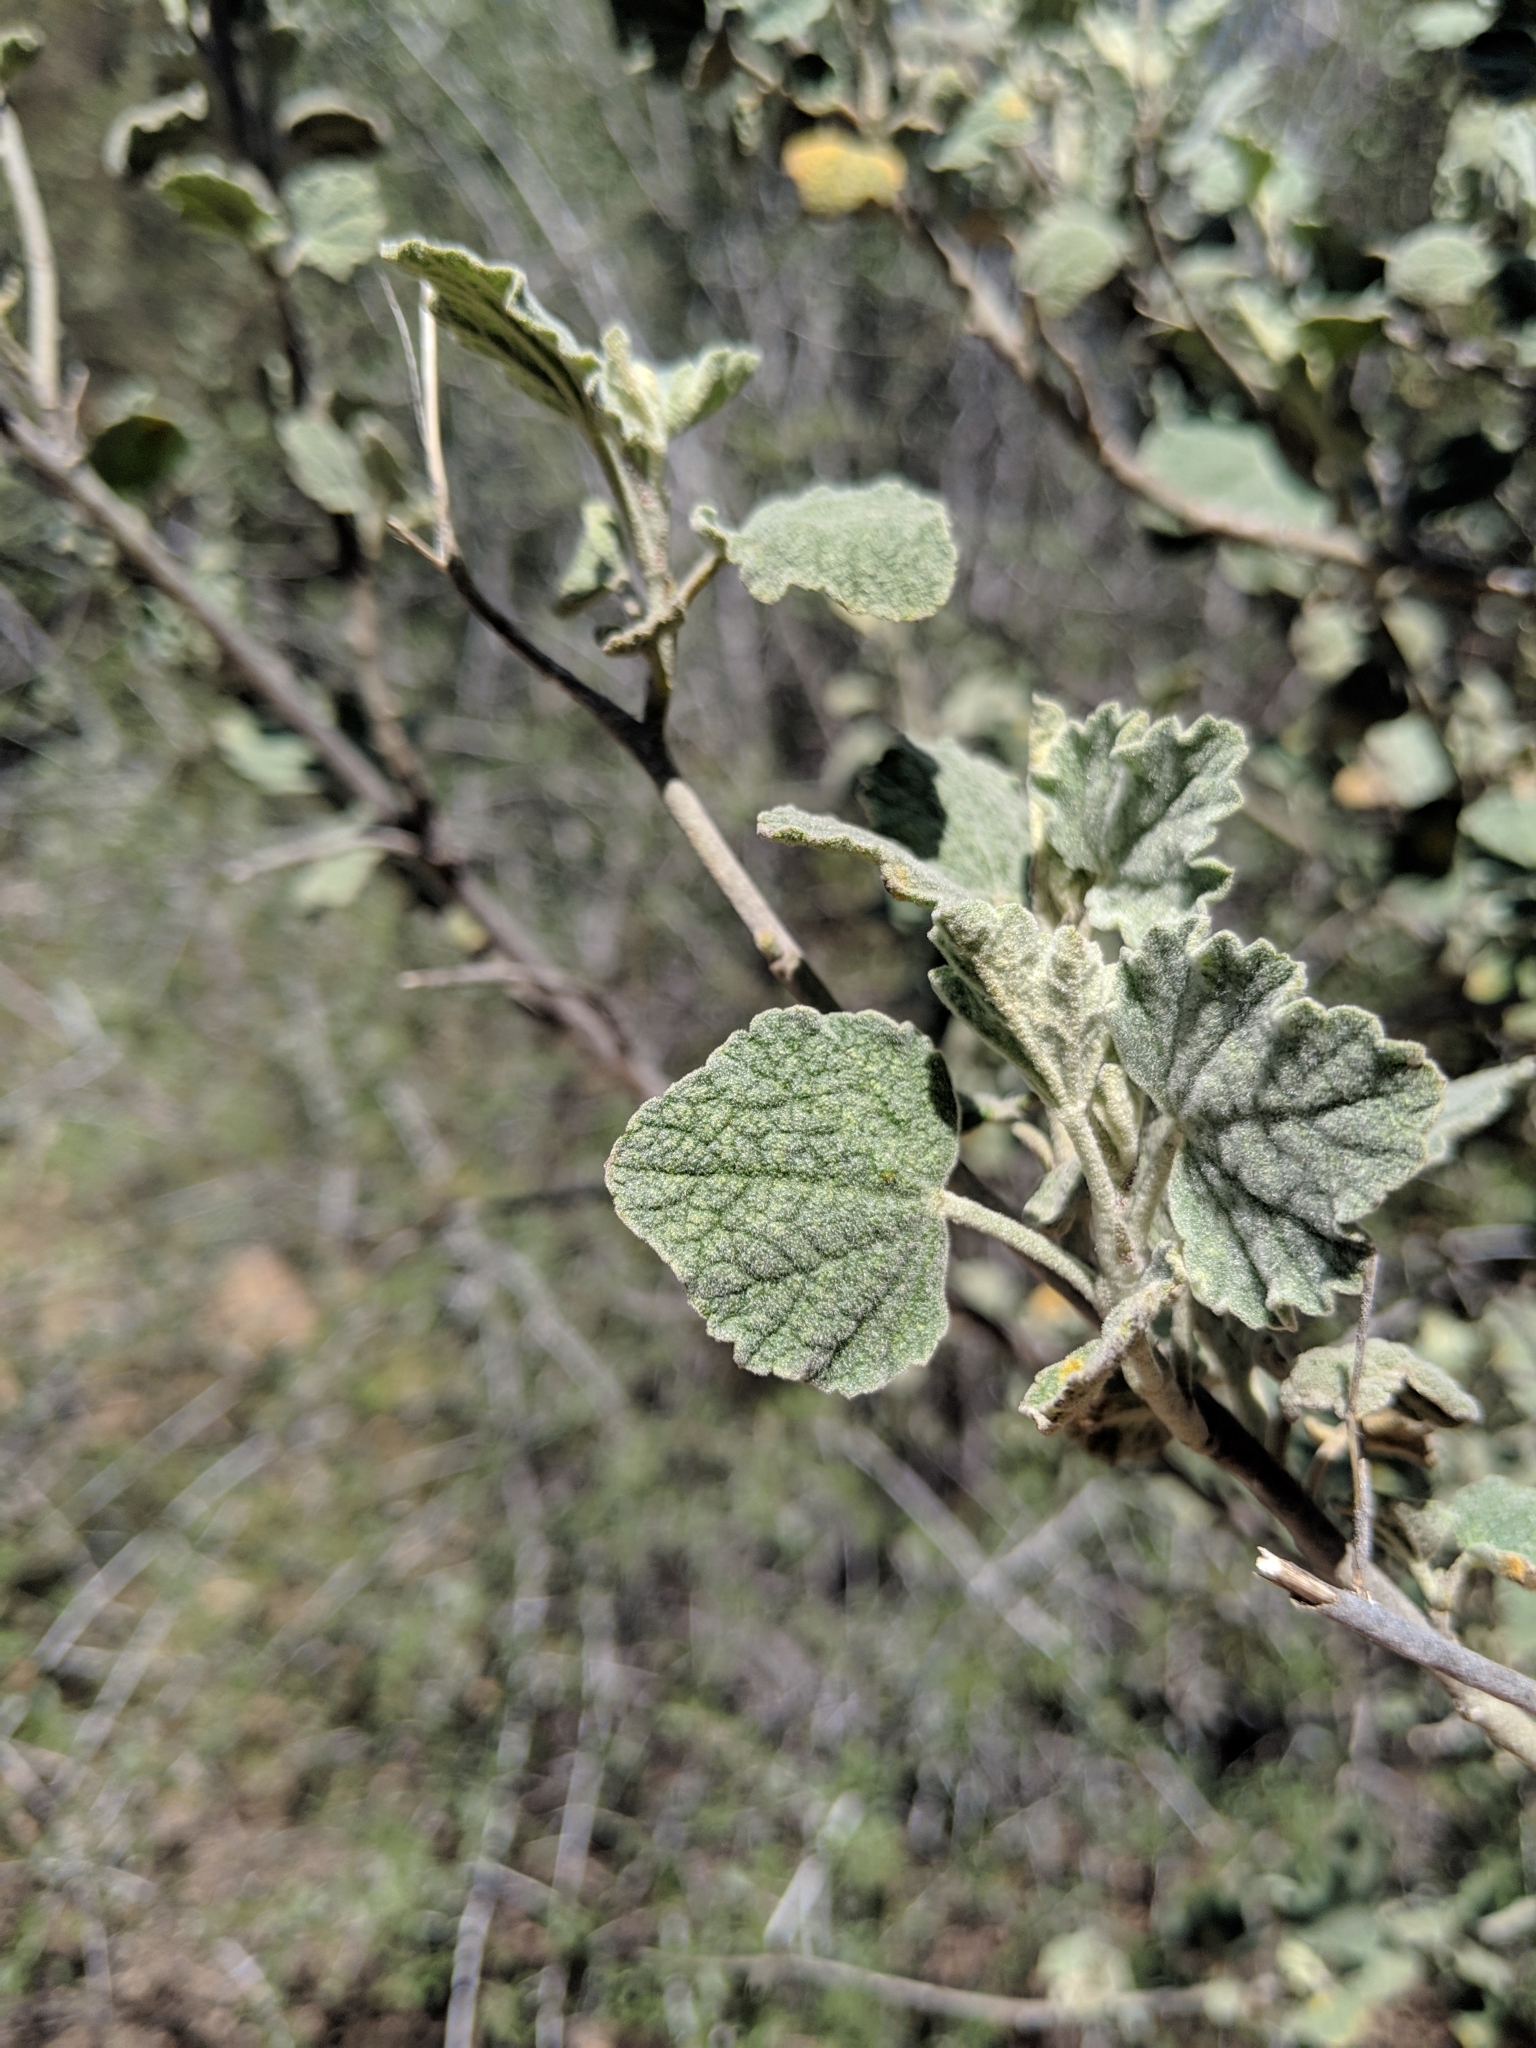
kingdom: Plantae
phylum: Tracheophyta
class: Magnoliopsida
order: Malvales
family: Malvaceae
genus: Malacothamnus
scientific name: Malacothamnus jonesii
